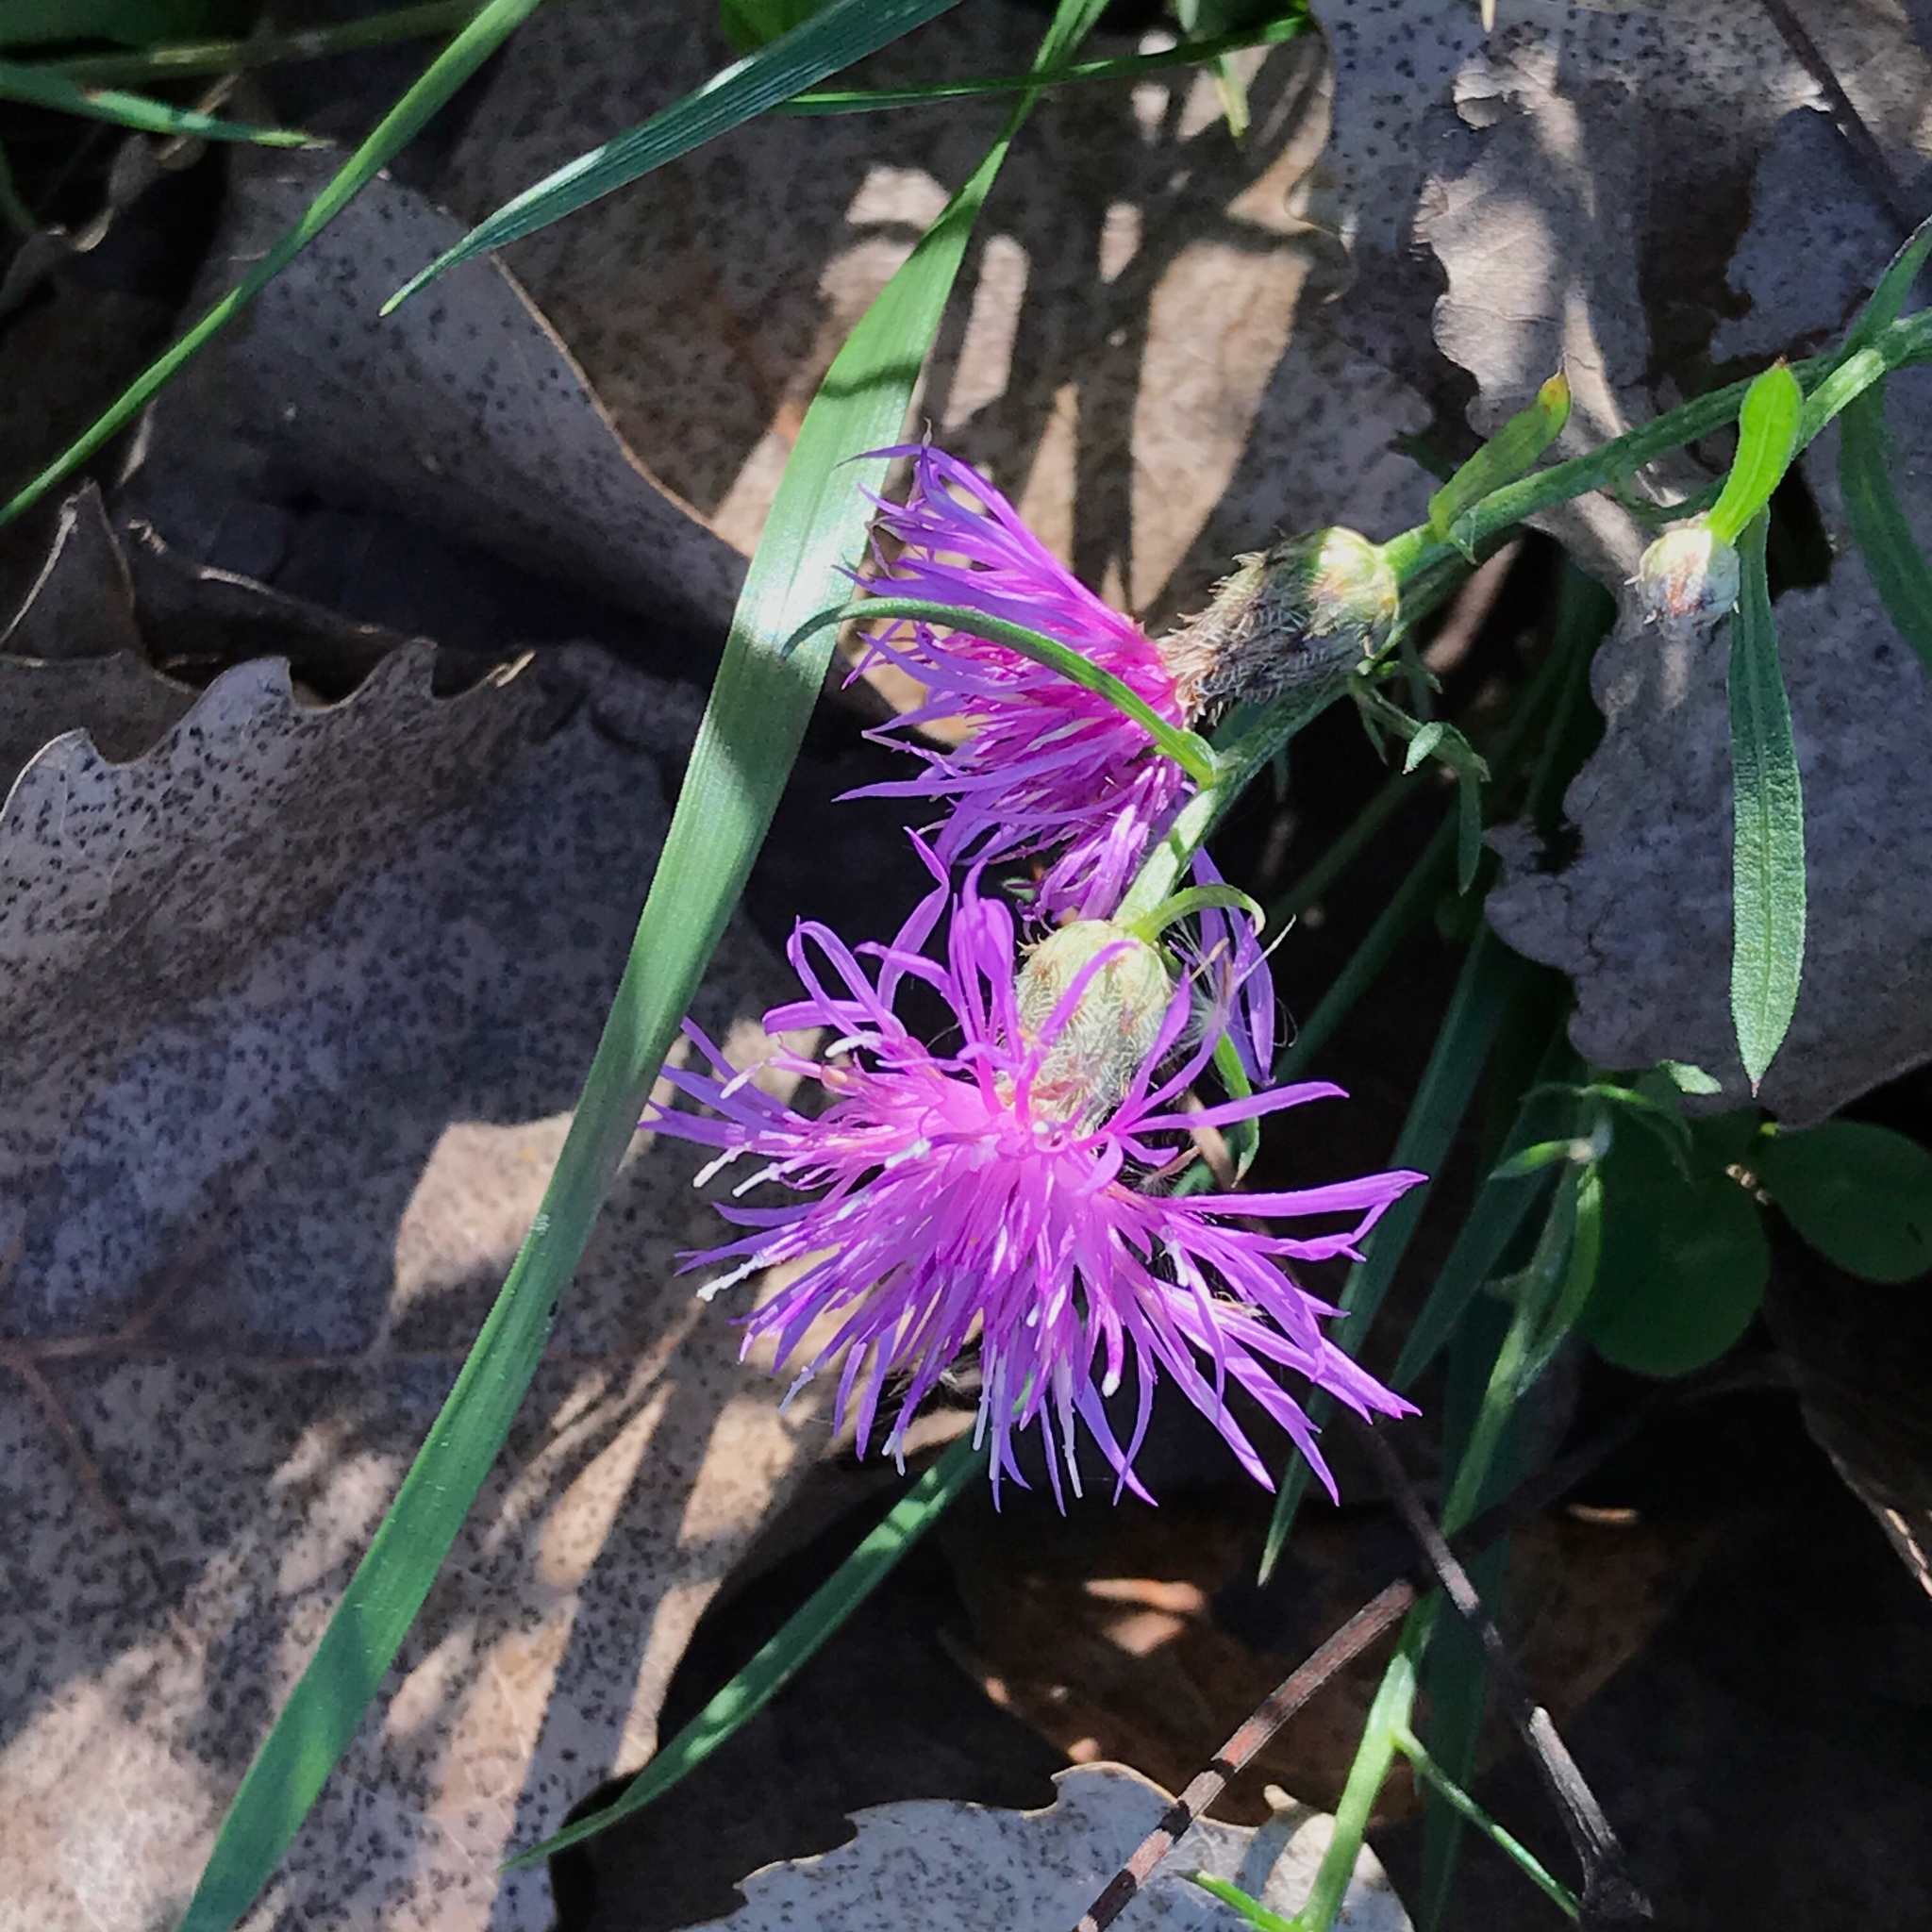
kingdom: Plantae
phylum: Tracheophyta
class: Magnoliopsida
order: Asterales
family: Asteraceae
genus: Centaurea
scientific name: Centaurea stoebe
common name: Spotted knapweed
